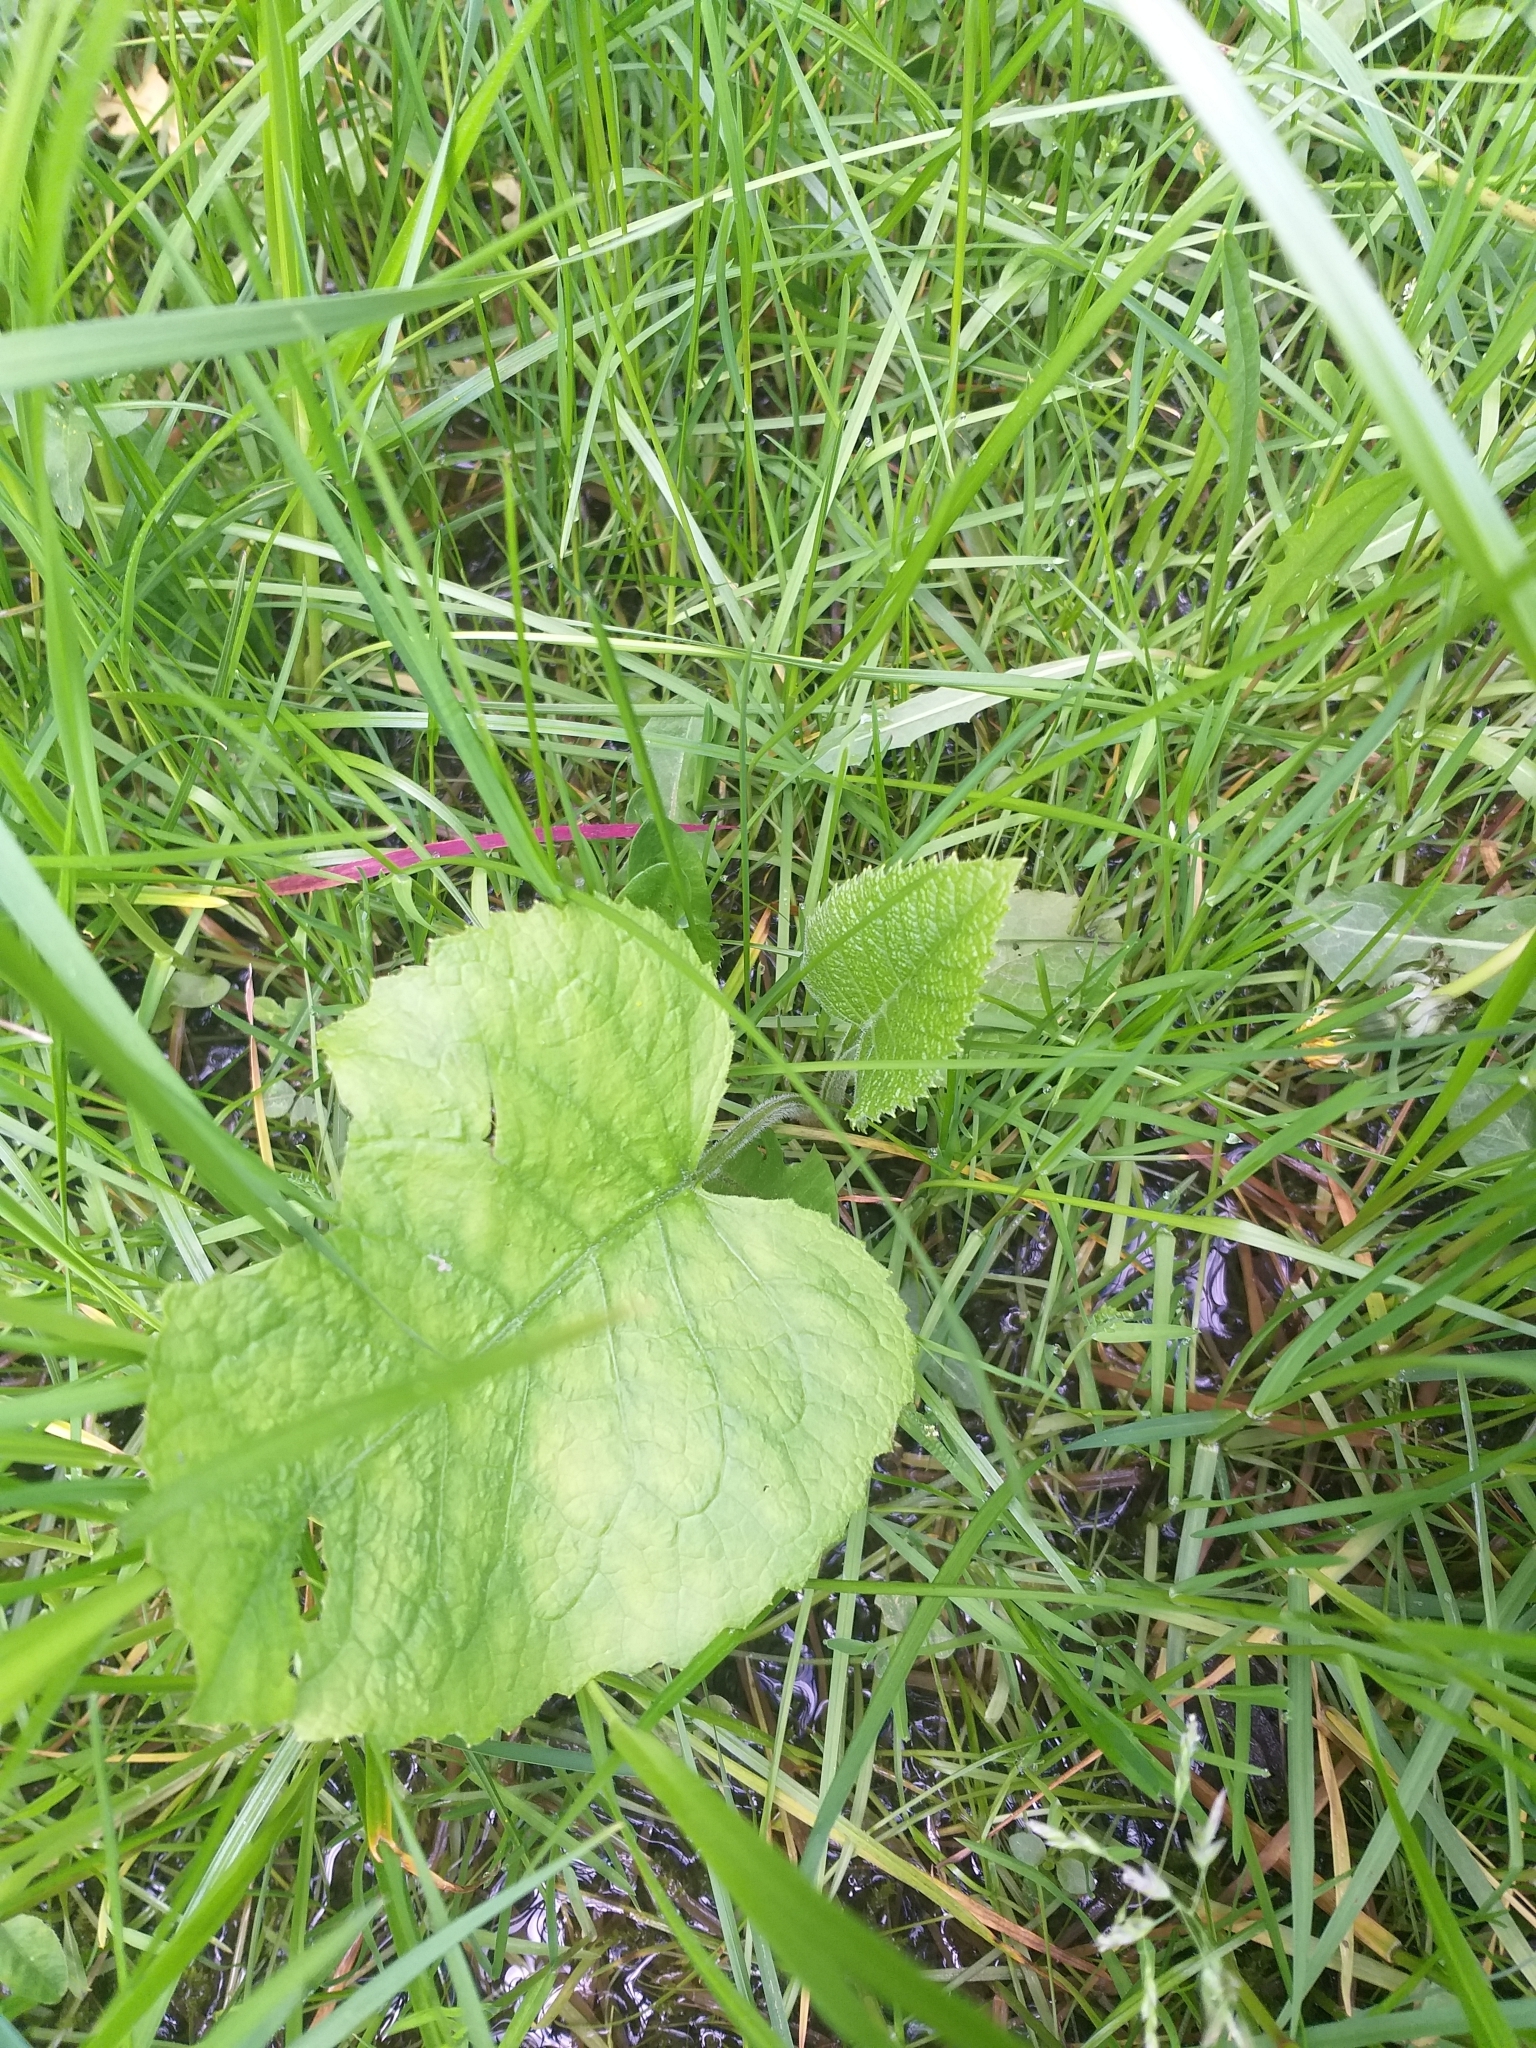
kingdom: Plantae
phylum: Tracheophyta
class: Magnoliopsida
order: Asterales
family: Asteraceae
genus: Telekia
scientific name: Telekia speciosa
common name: Yellow oxeye
